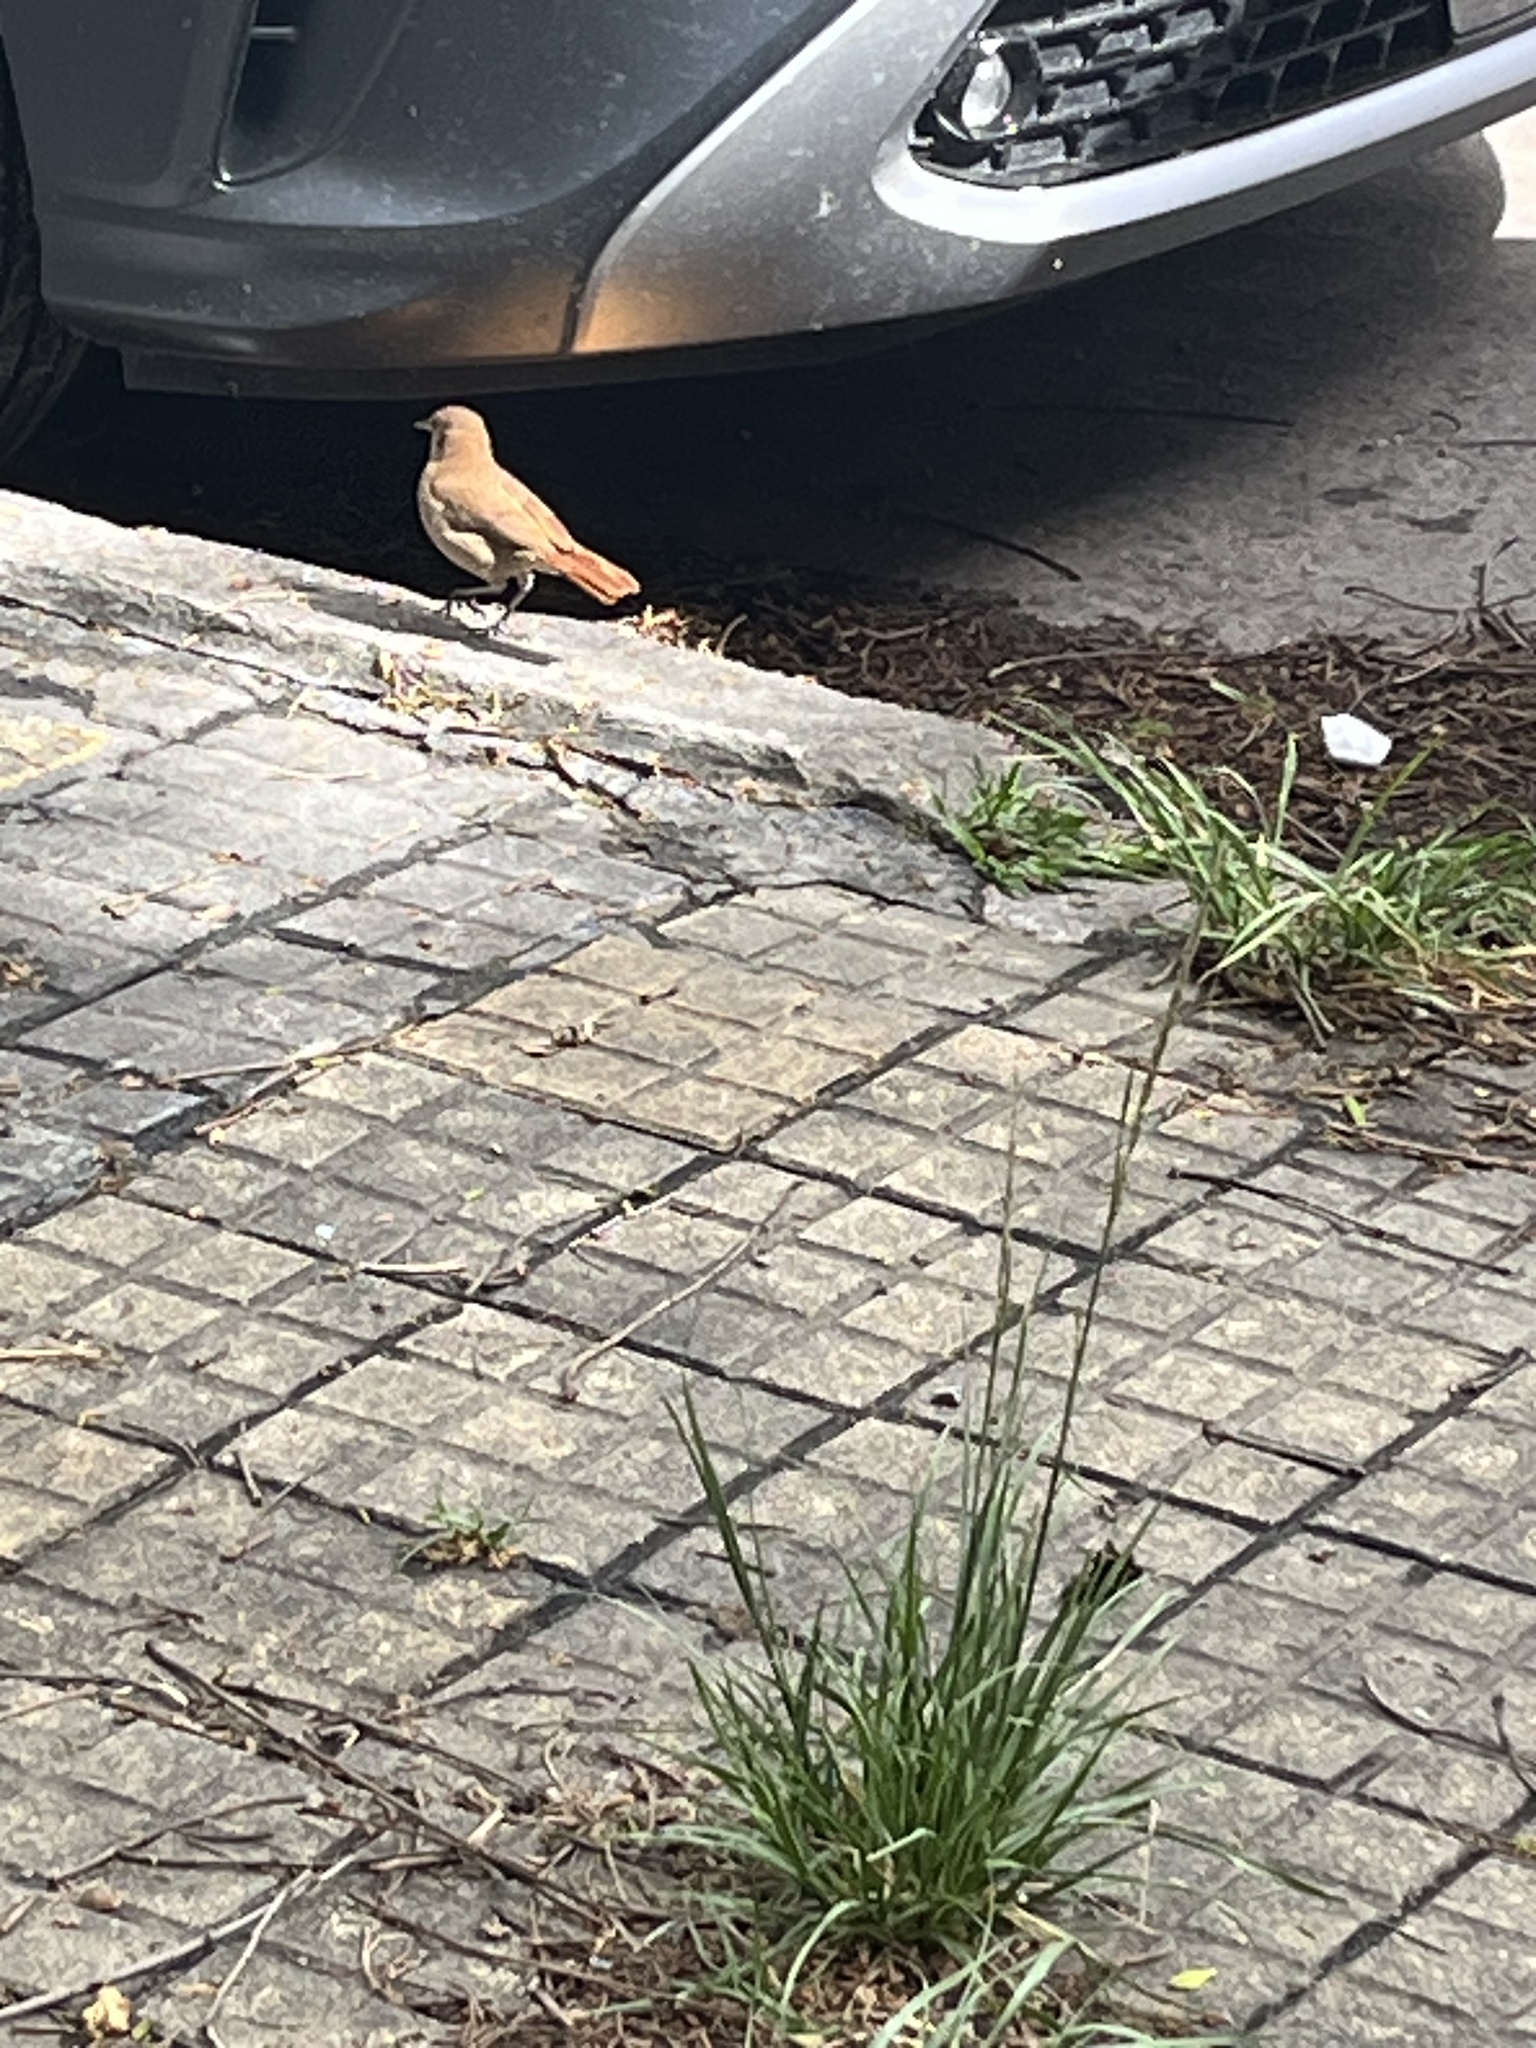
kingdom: Animalia
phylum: Chordata
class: Aves
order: Passeriformes
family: Furnariidae
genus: Furnarius
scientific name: Furnarius rufus
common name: Rufous hornero
